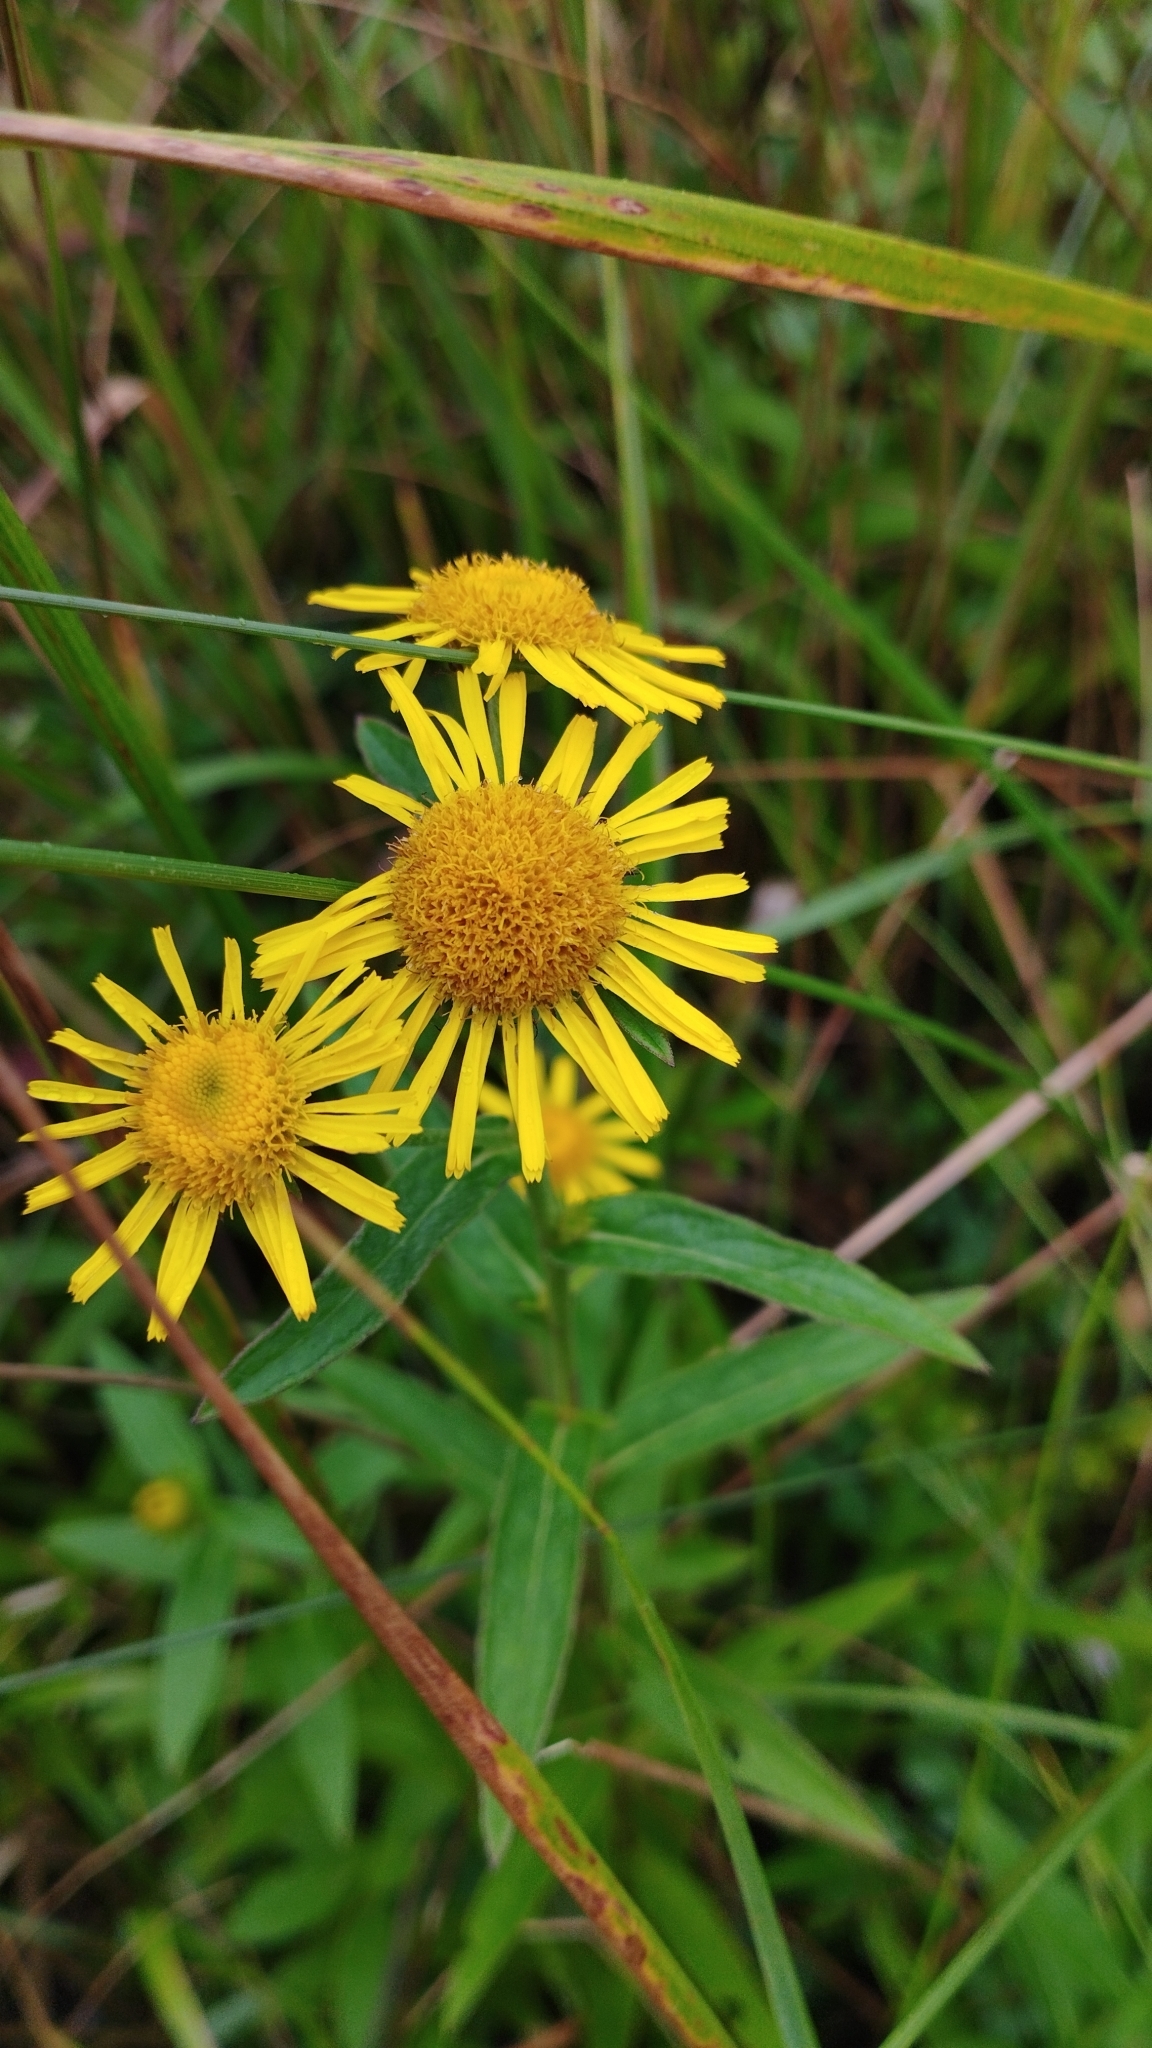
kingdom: Plantae
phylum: Tracheophyta
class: Magnoliopsida
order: Asterales
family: Asteraceae
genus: Inula
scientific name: Inula japonica
